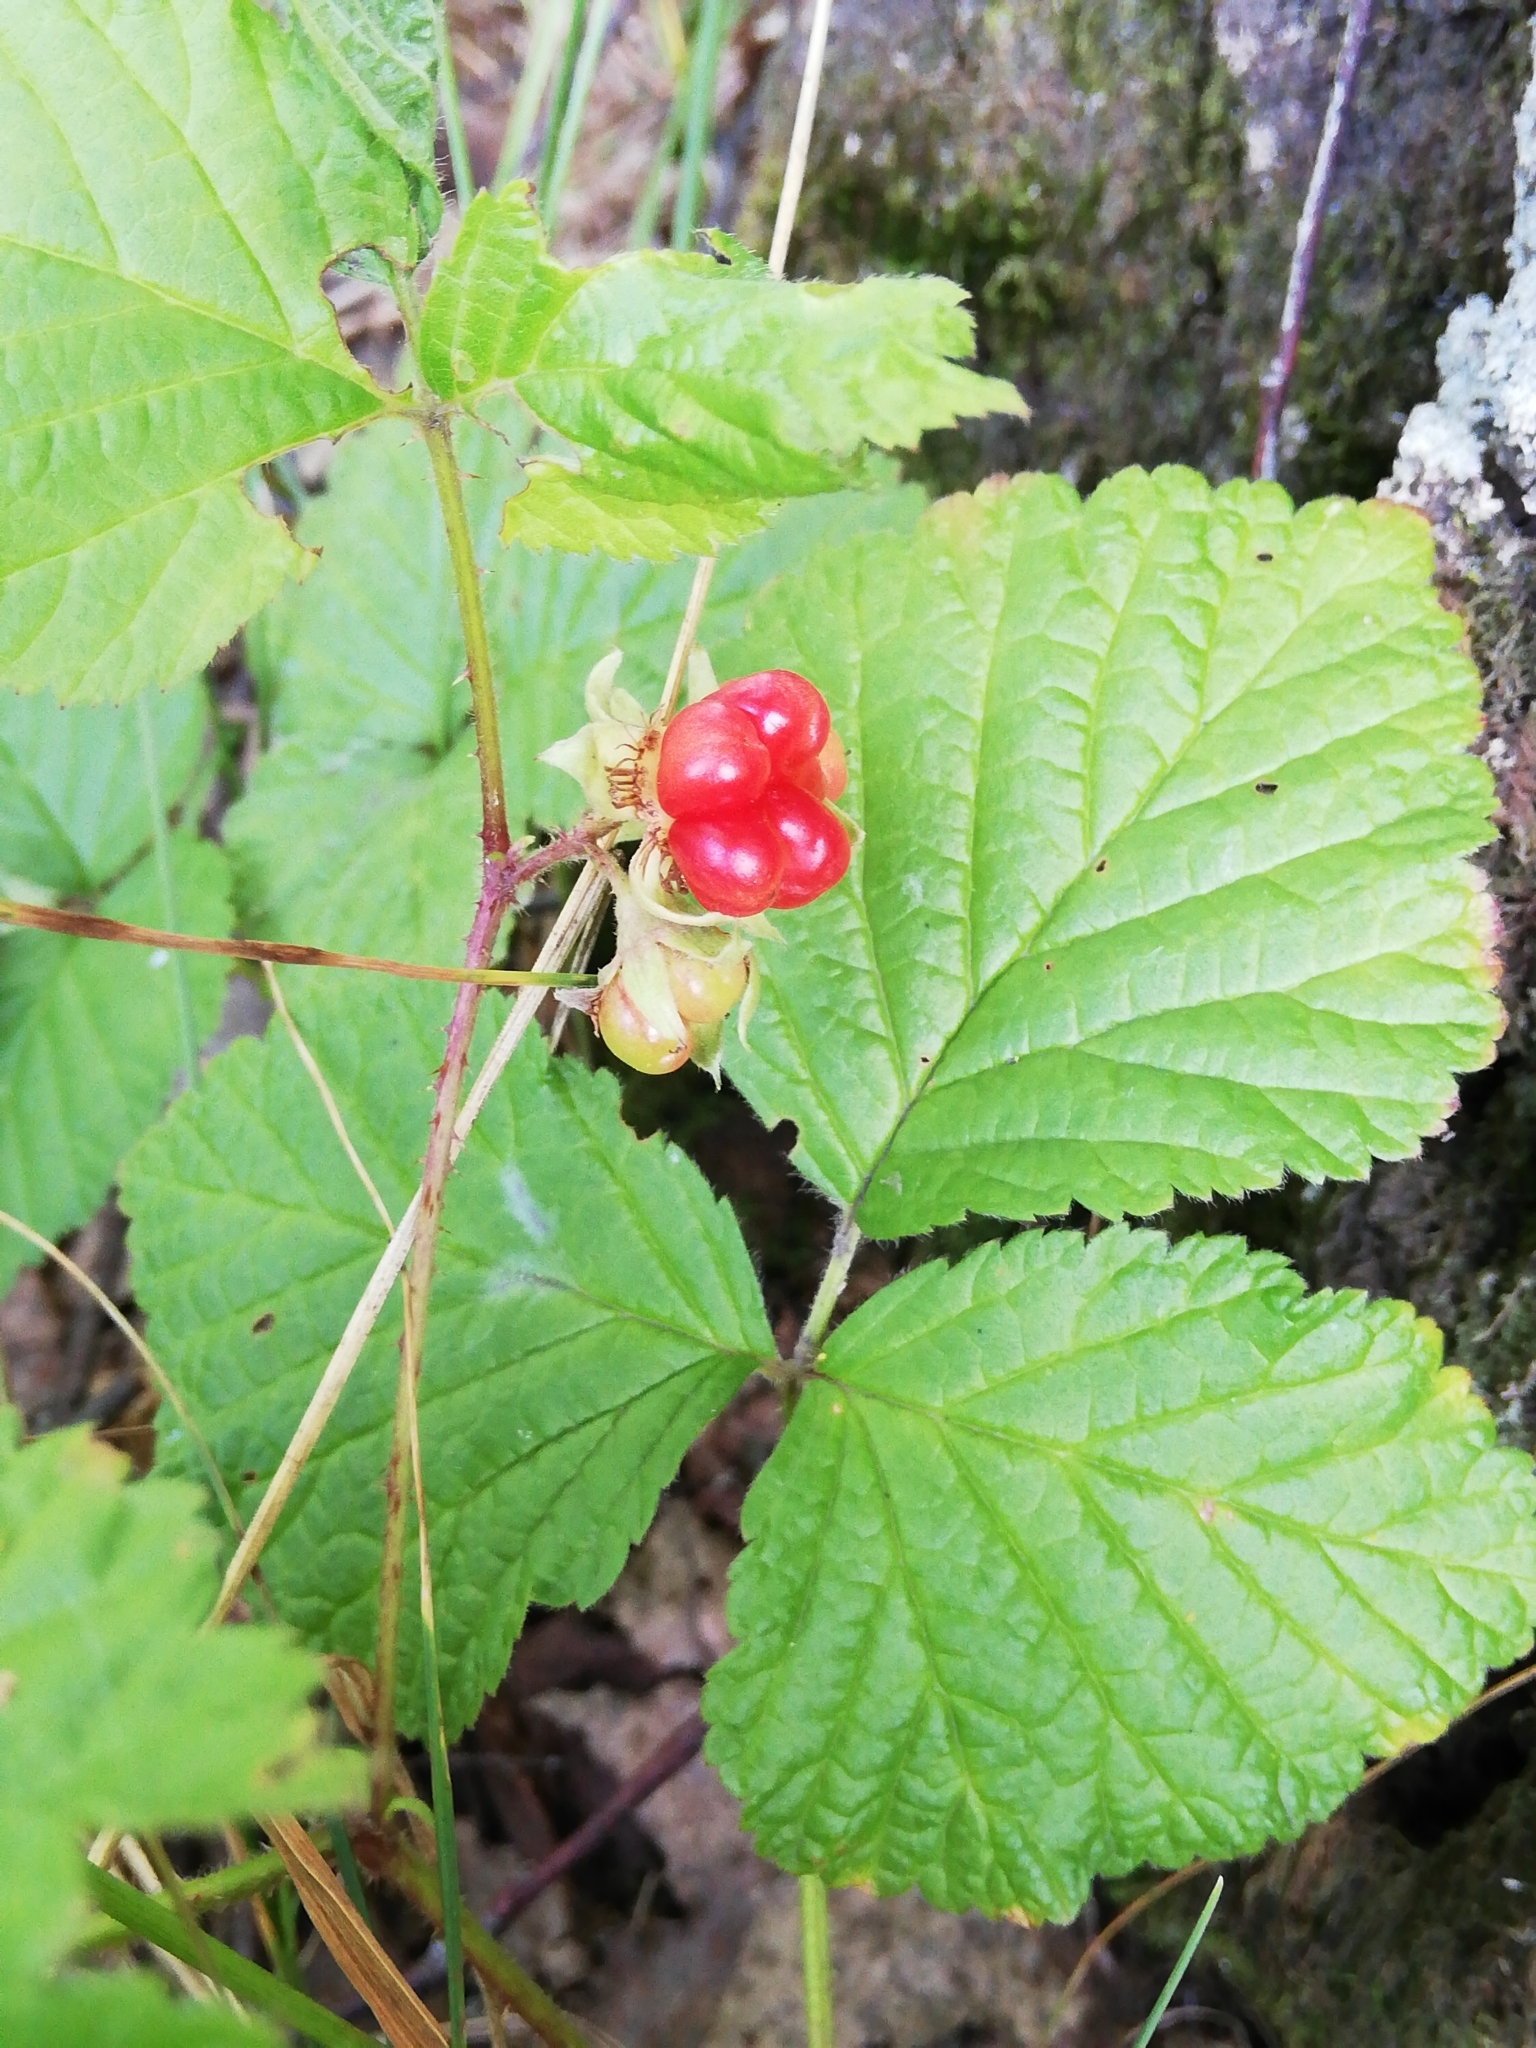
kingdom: Plantae
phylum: Tracheophyta
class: Magnoliopsida
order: Rosales
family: Rosaceae
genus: Rubus
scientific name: Rubus saxatilis
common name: Stone bramble
